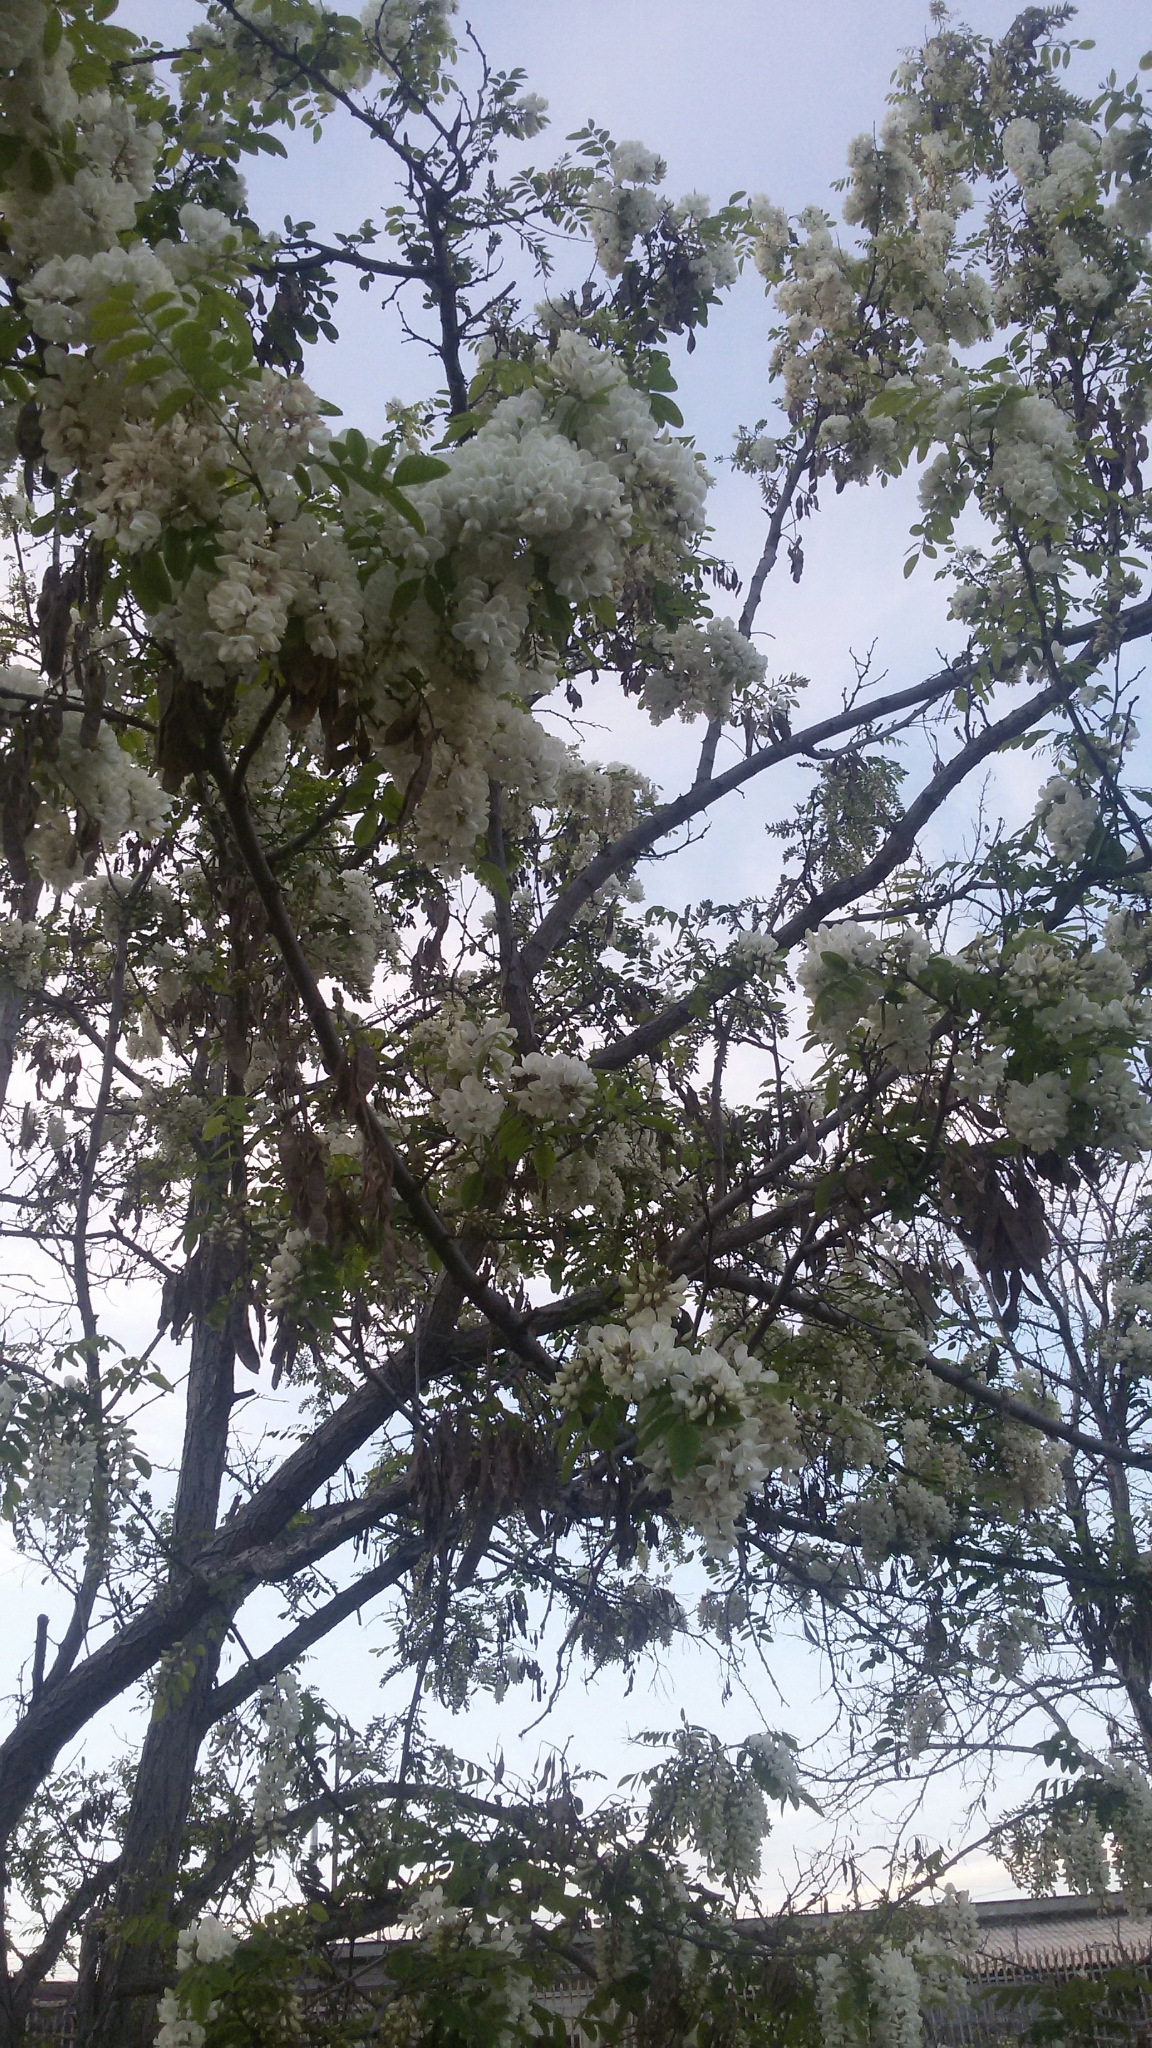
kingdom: Plantae
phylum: Tracheophyta
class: Magnoliopsida
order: Fabales
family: Fabaceae
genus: Robinia
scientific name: Robinia pseudoacacia
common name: Black locust
